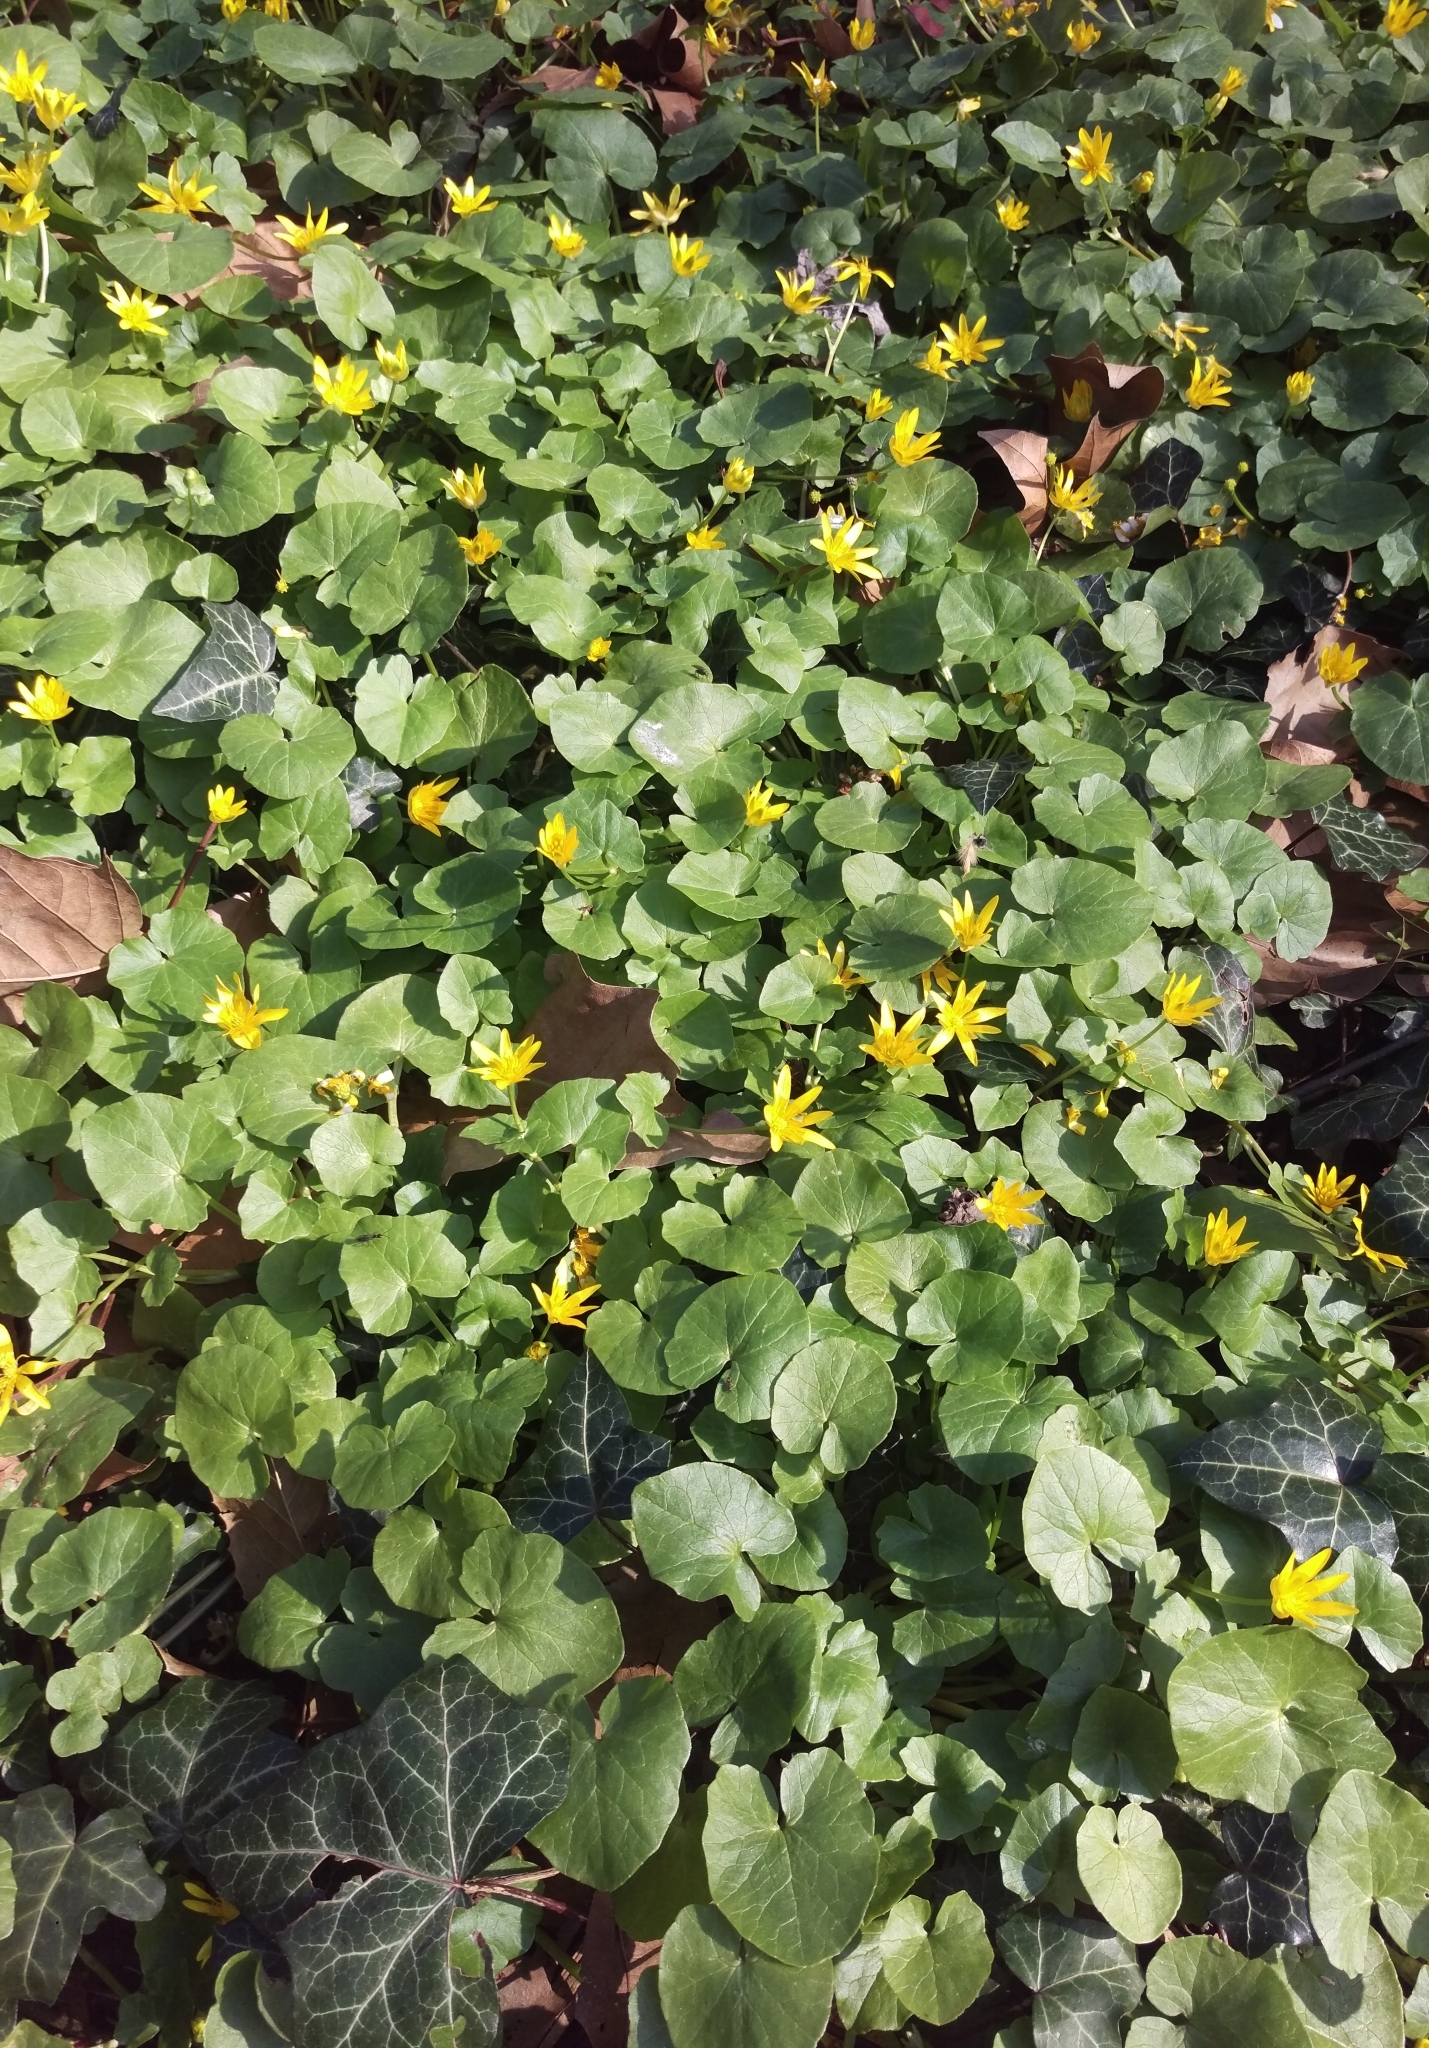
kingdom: Plantae
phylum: Tracheophyta
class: Magnoliopsida
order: Ranunculales
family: Ranunculaceae
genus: Ficaria
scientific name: Ficaria verna
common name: Lesser celandine
